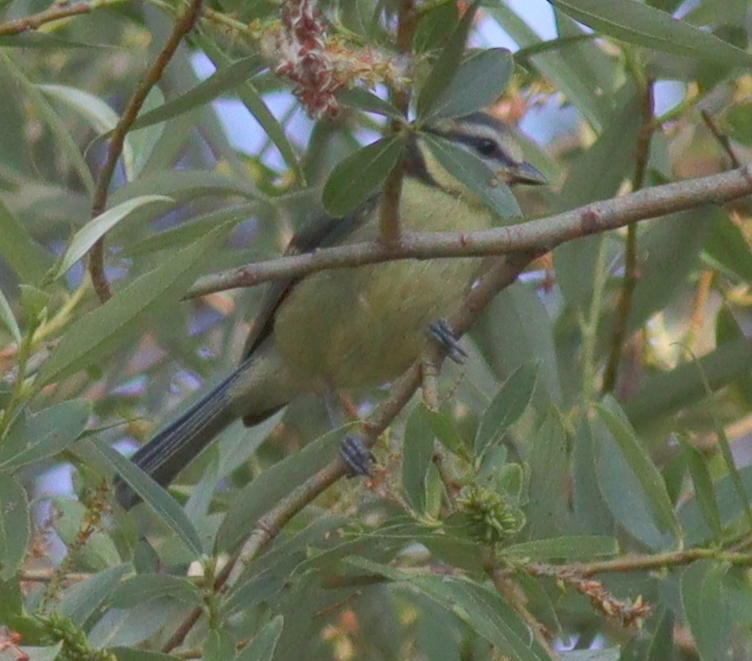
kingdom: Animalia
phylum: Chordata
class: Aves
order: Passeriformes
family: Paridae
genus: Cyanistes
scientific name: Cyanistes caeruleus
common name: Eurasian blue tit
